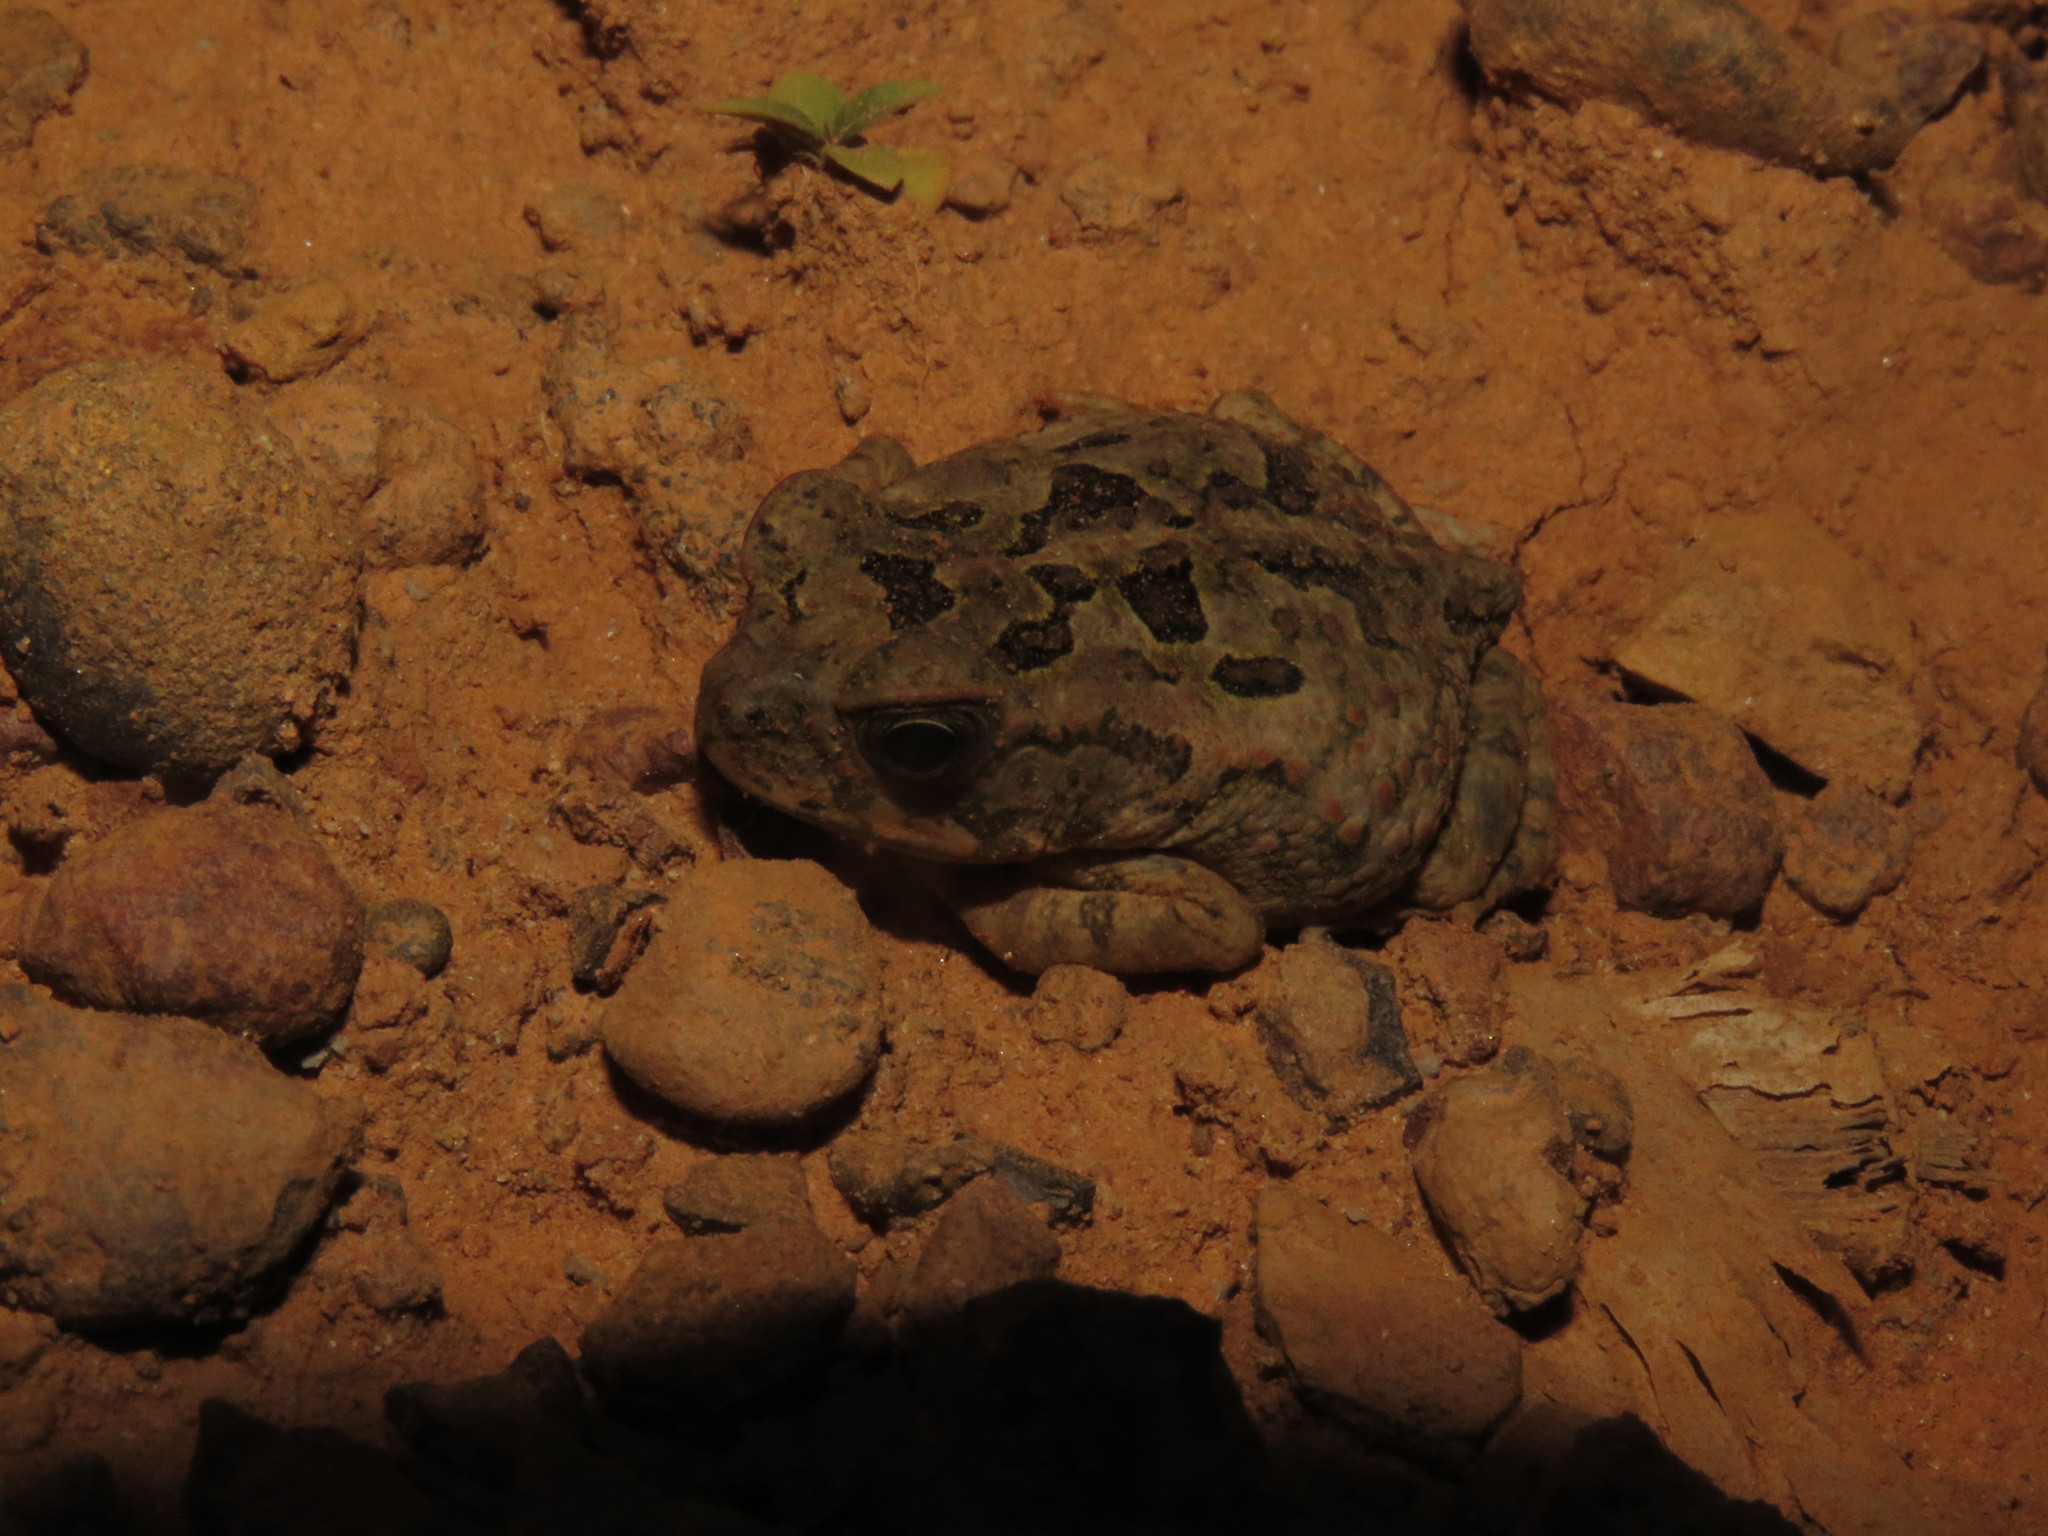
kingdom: Animalia
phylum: Chordata
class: Amphibia
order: Anura
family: Bufonidae
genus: Rhinella
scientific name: Rhinella marina
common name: Cane toad
